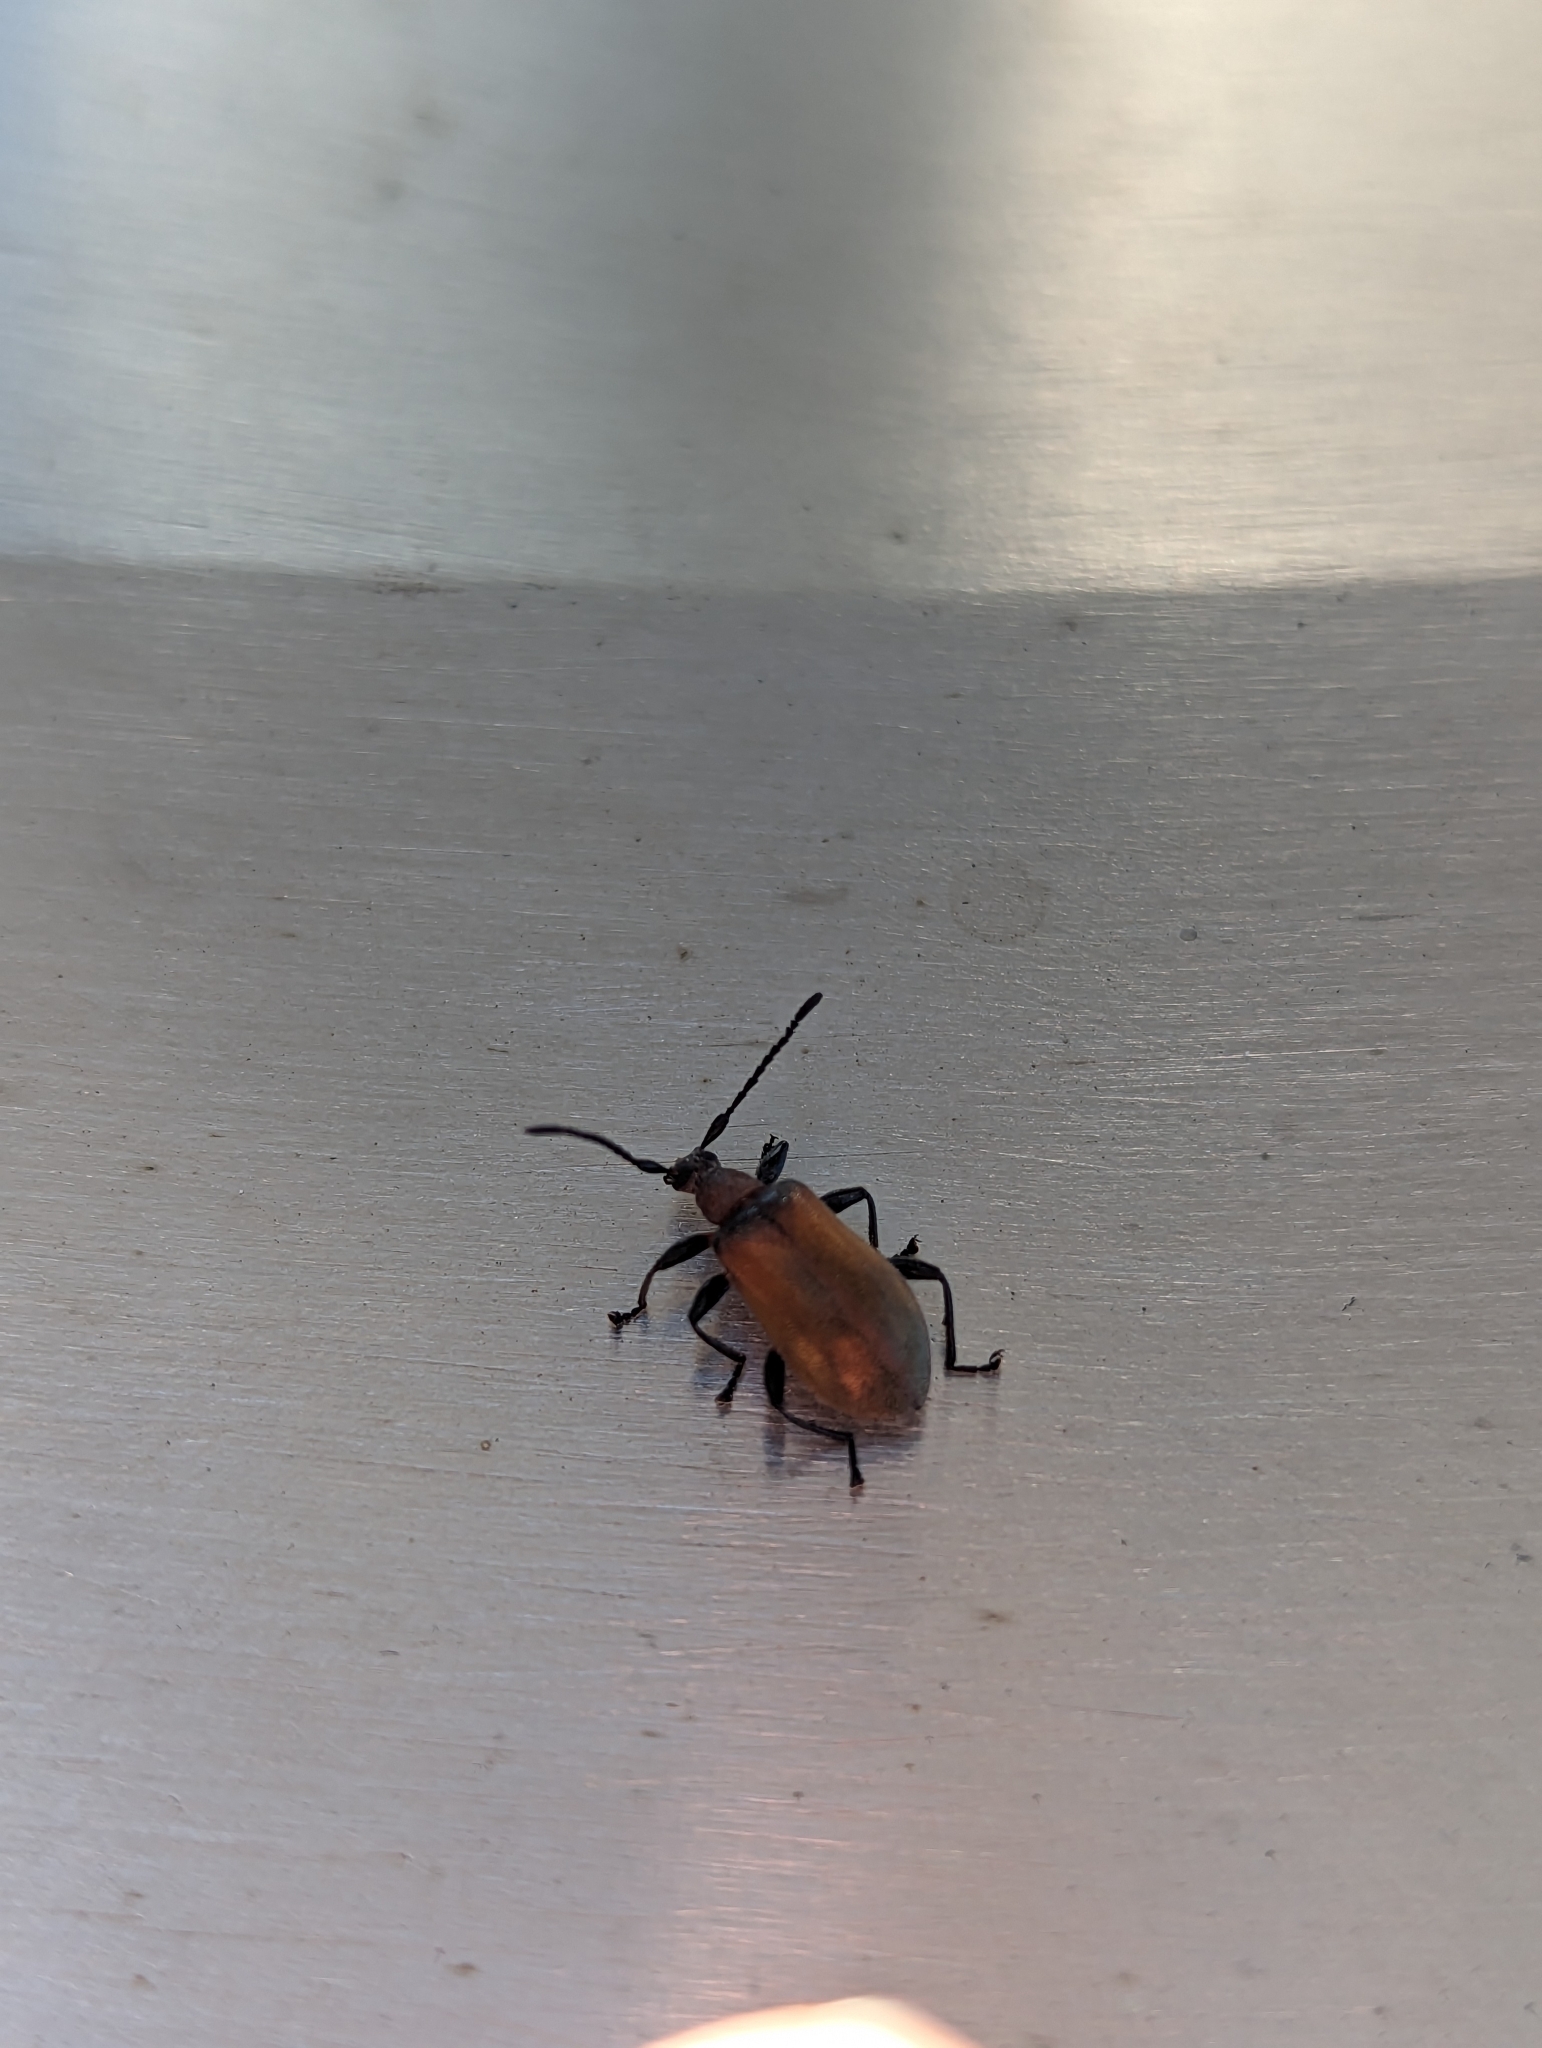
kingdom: Animalia
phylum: Arthropoda
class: Insecta
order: Coleoptera
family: Tenebrionidae
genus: Ecnolagria
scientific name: Ecnolagria
